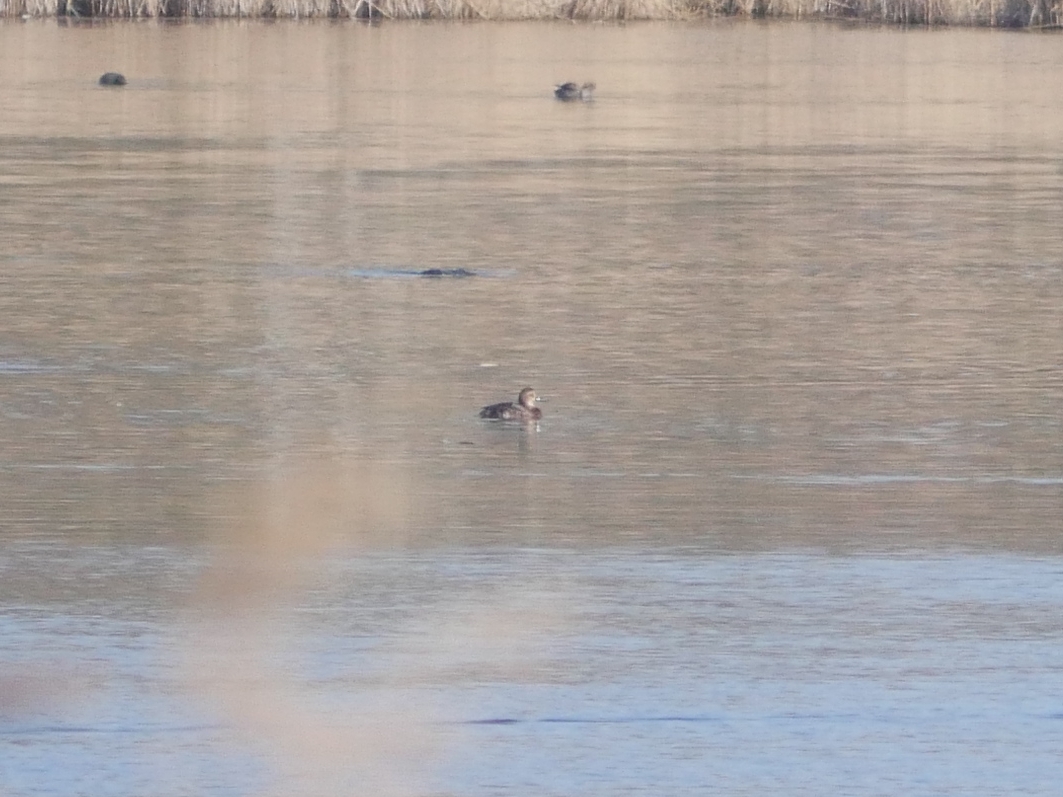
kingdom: Animalia
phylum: Chordata
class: Aves
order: Anseriformes
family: Anatidae
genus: Aythya
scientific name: Aythya ferina
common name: Common pochard
